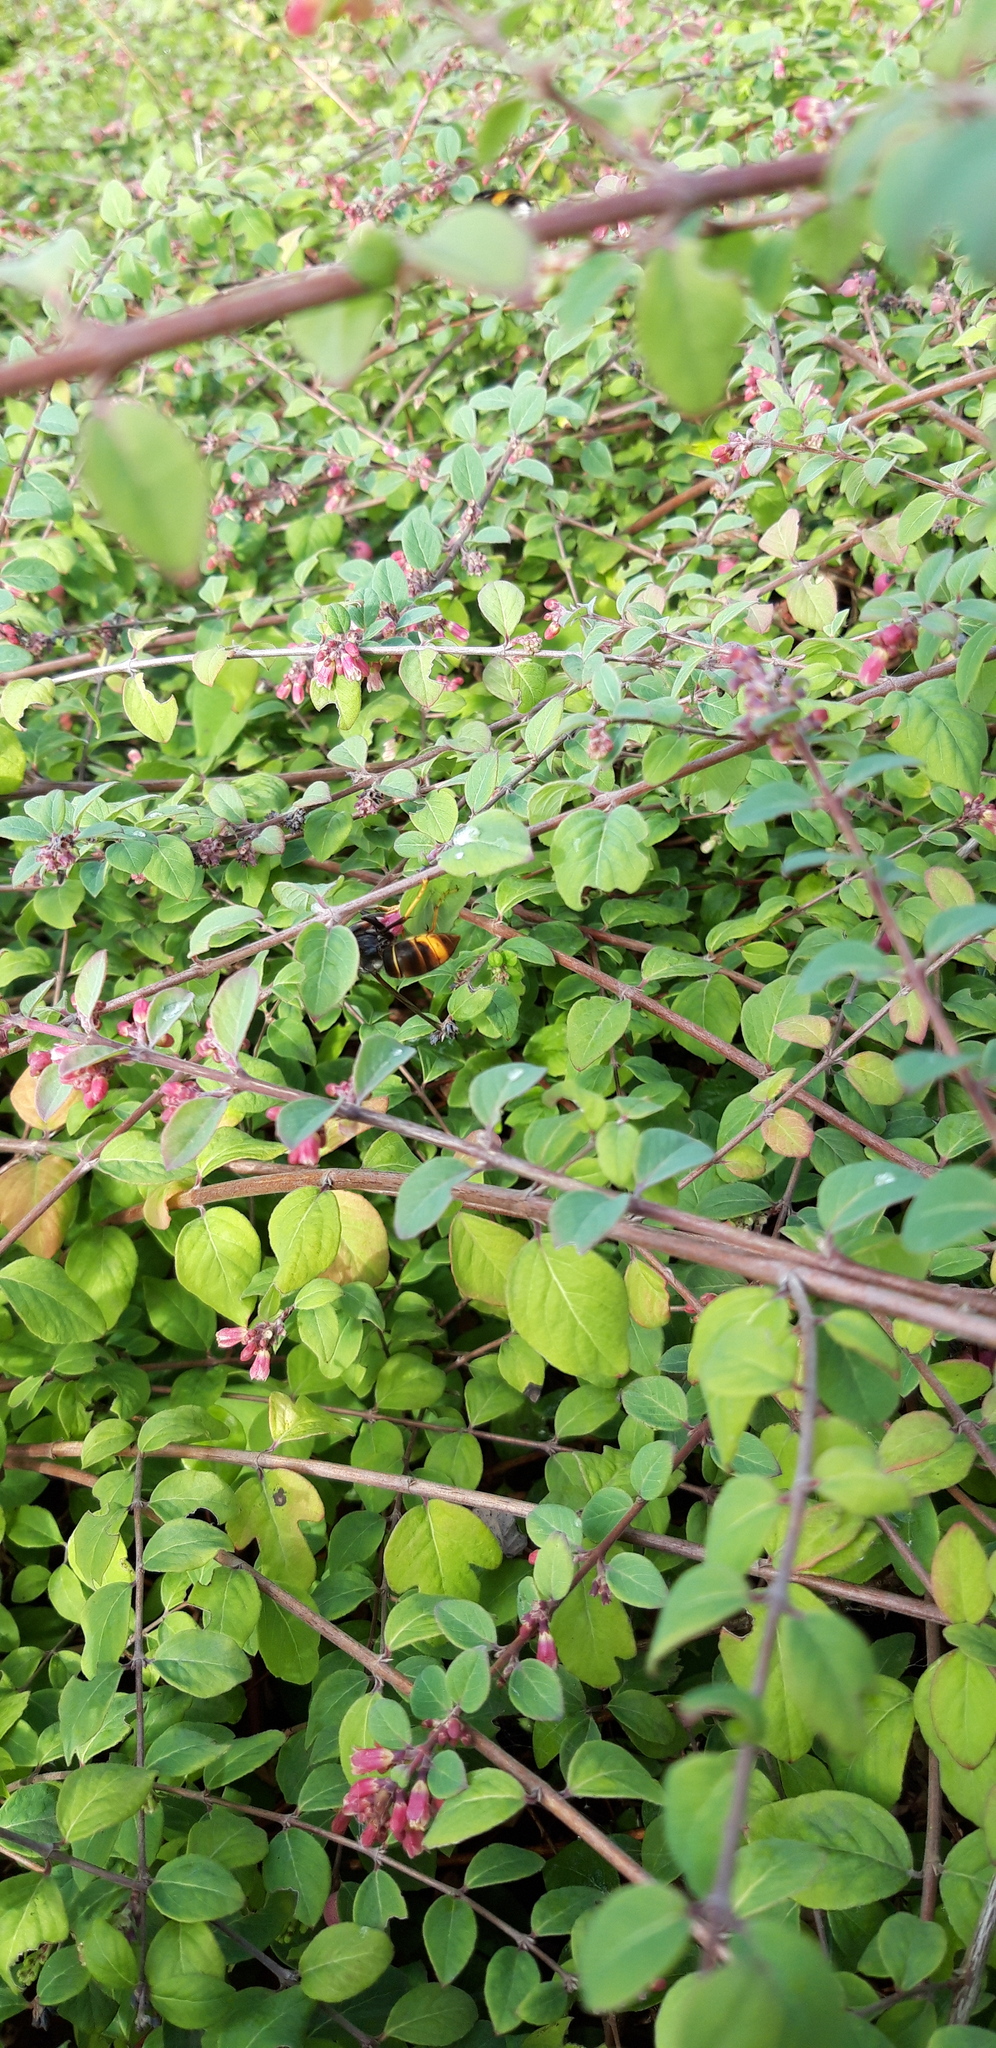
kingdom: Animalia
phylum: Arthropoda
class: Insecta
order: Hymenoptera
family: Vespidae
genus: Vespa
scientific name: Vespa velutina
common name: Asian hornet
